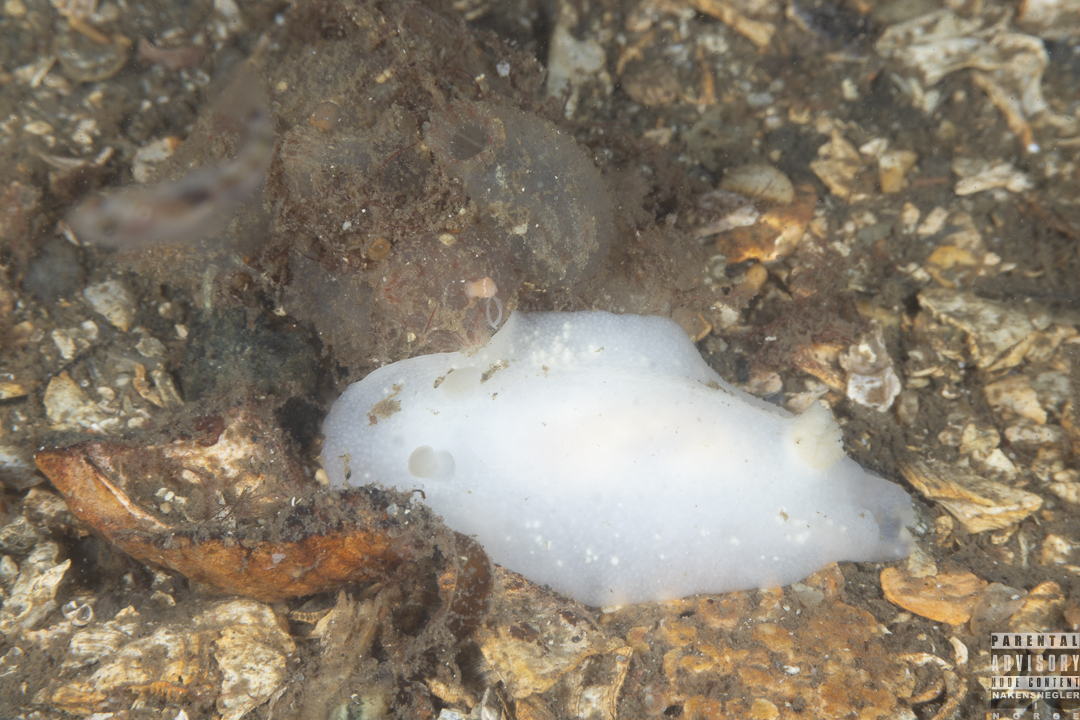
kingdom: Animalia
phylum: Mollusca
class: Gastropoda
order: Nudibranchia
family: Cadlinidae
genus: Cadlina
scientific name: Cadlina laevis
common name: White atlantic cadlina
